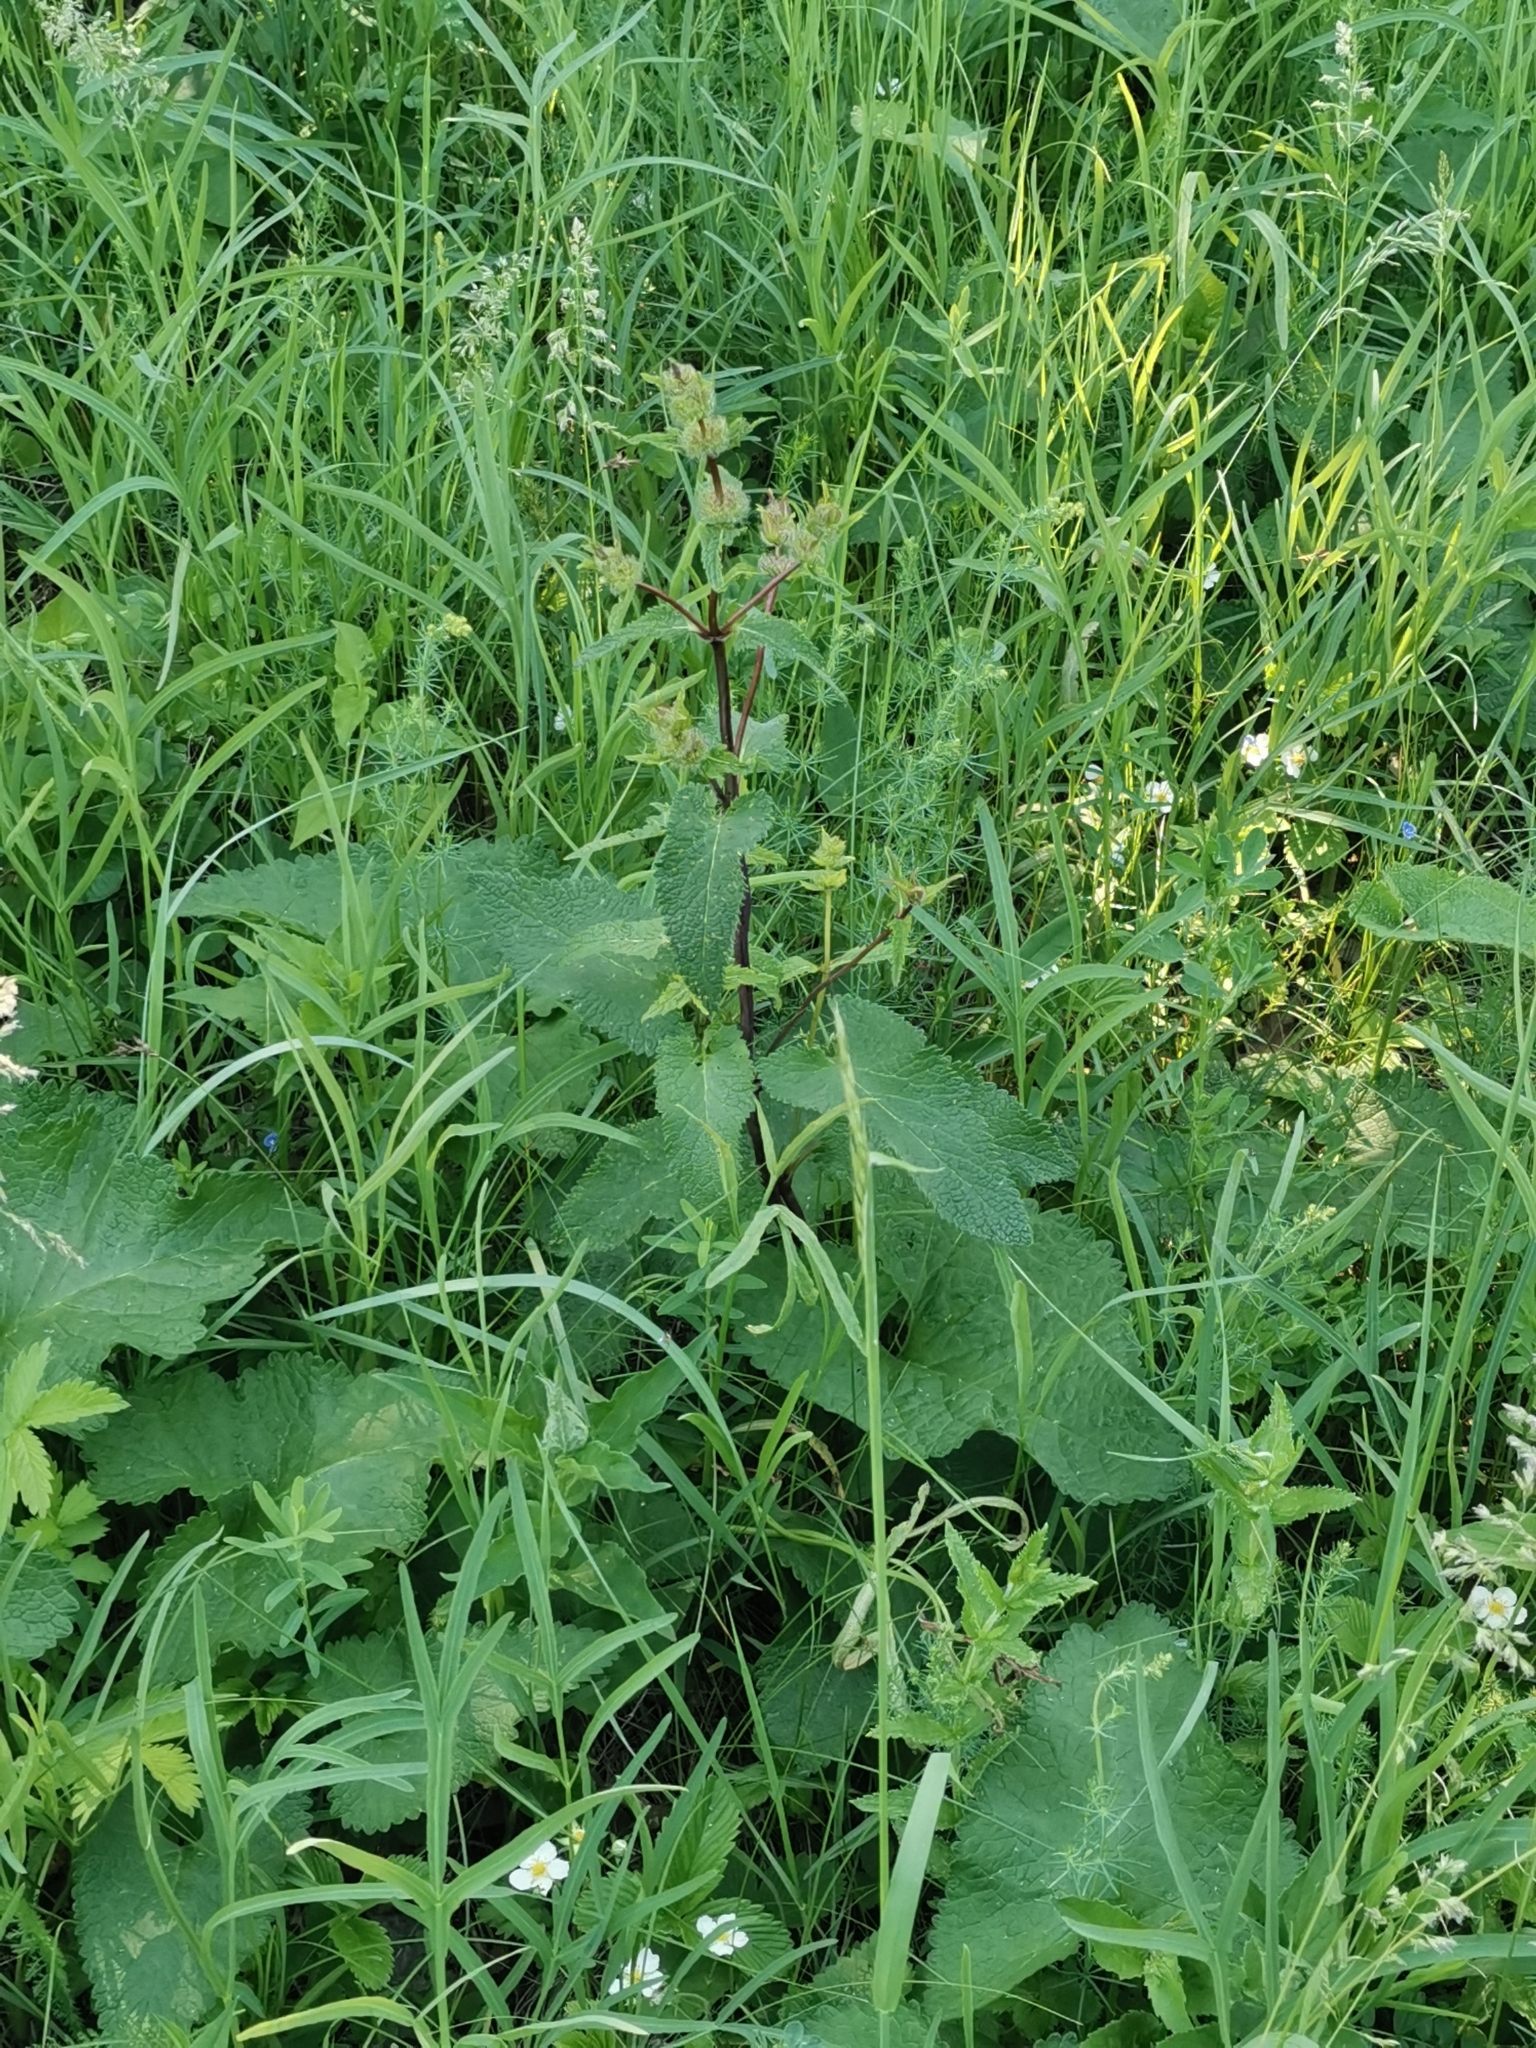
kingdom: Plantae
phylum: Tracheophyta
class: Magnoliopsida
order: Lamiales
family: Lamiaceae
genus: Phlomoides
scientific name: Phlomoides tuberosa
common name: Tuberous jerusalem sage
